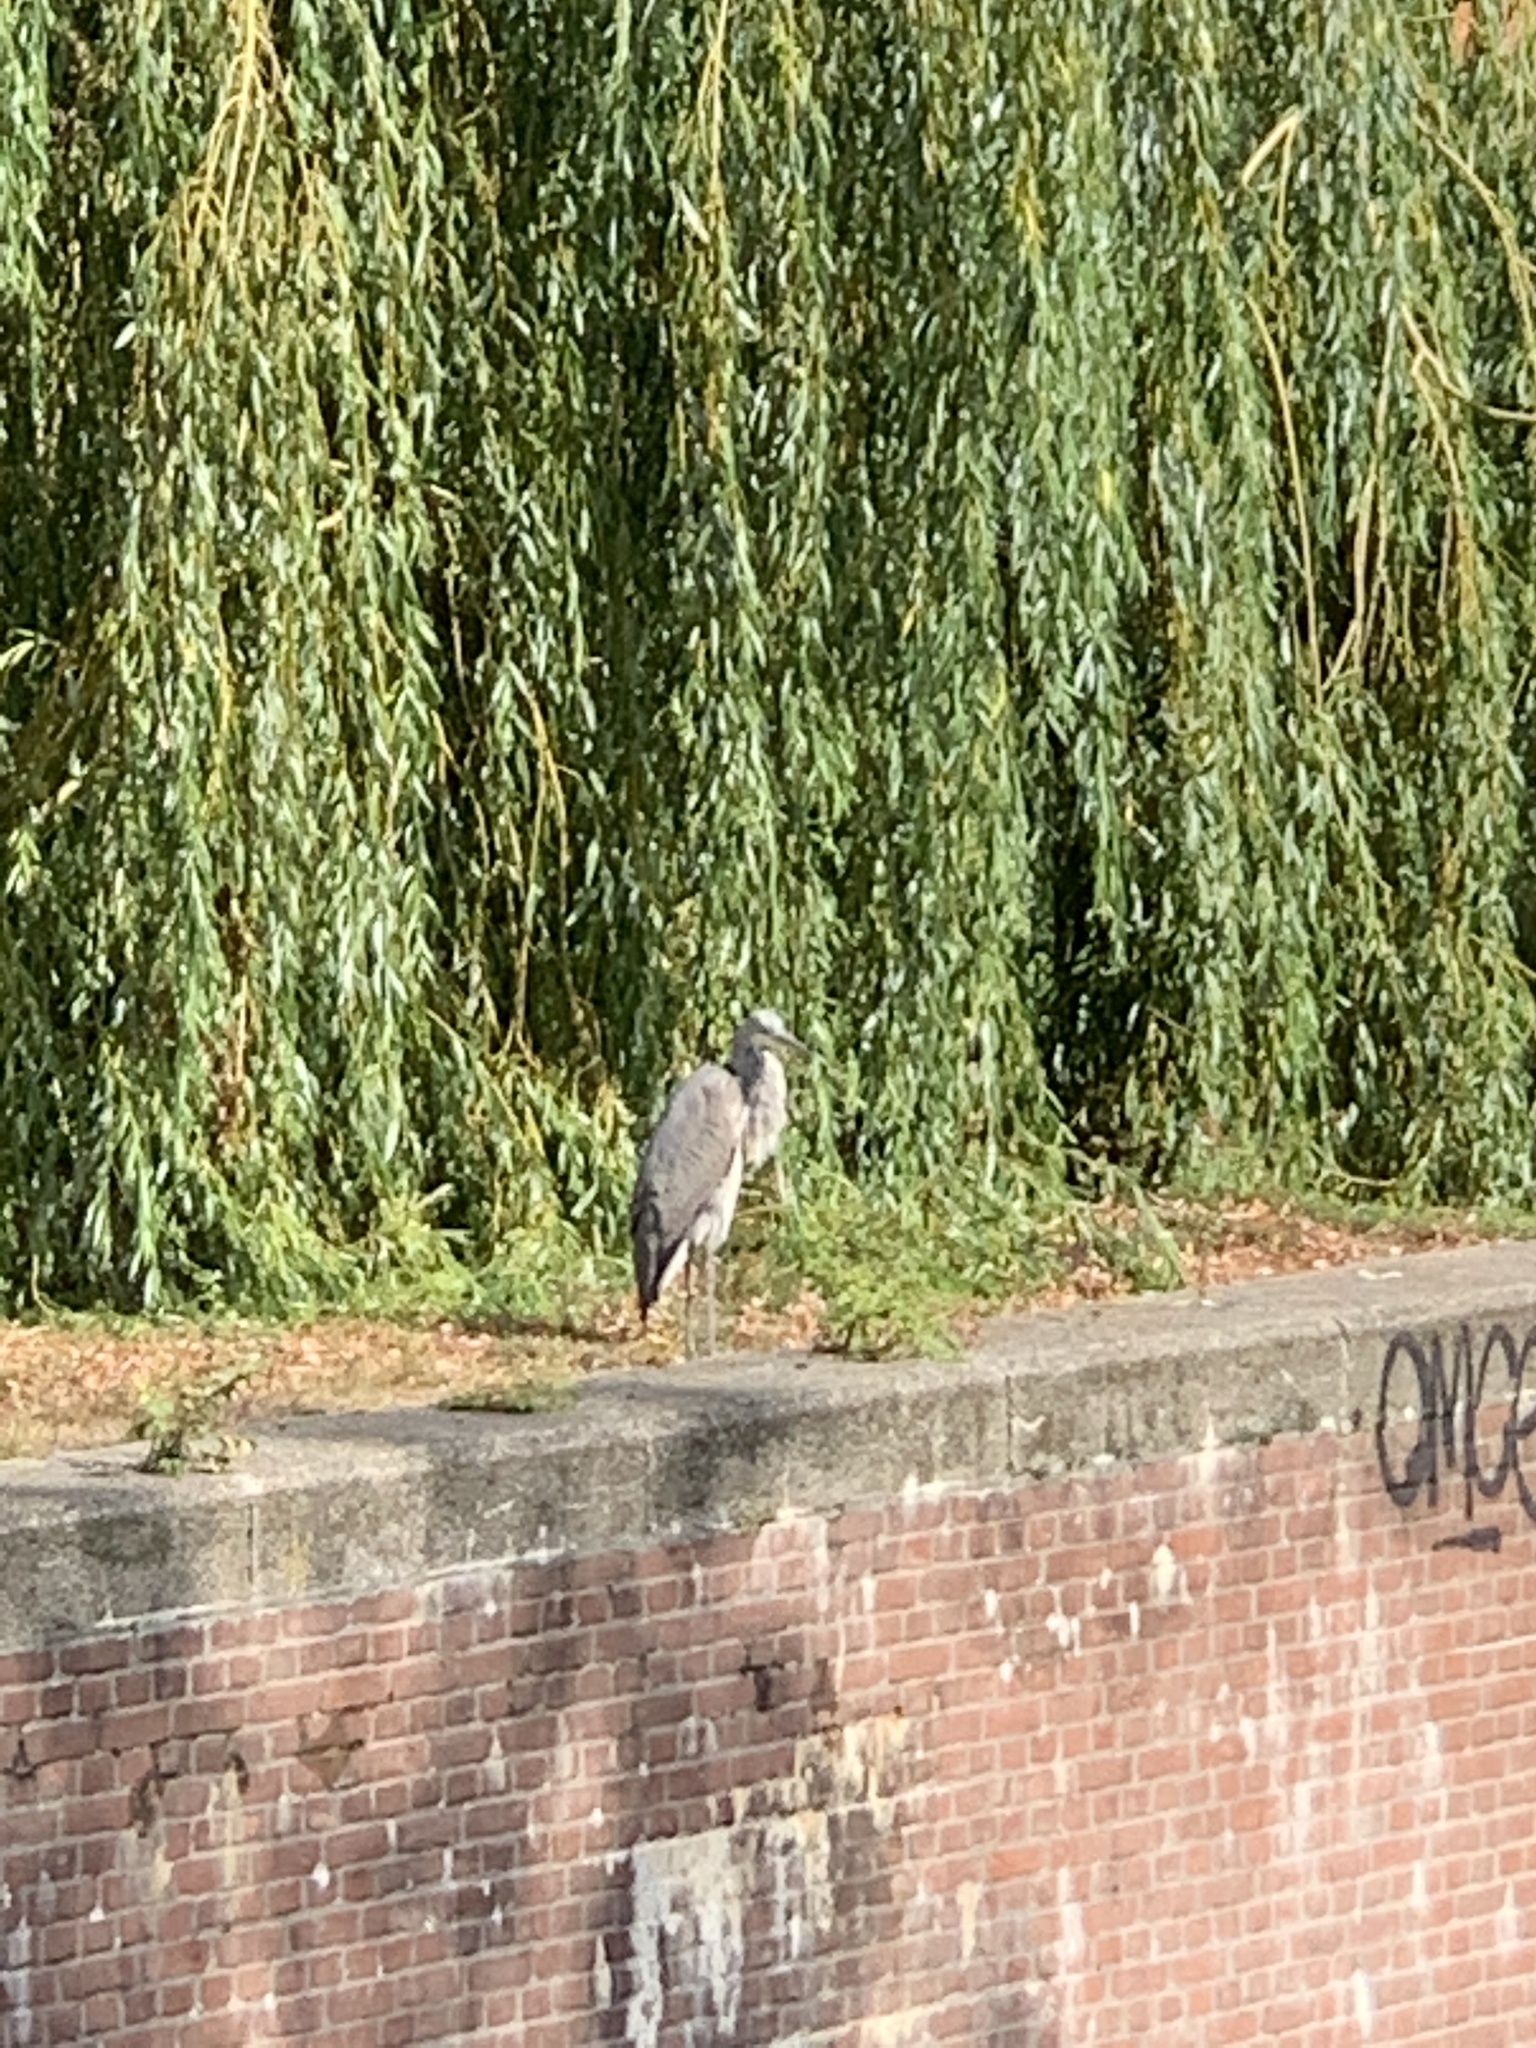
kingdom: Animalia
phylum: Chordata
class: Aves
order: Pelecaniformes
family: Ardeidae
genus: Ardea
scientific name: Ardea cinerea
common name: Grey heron
